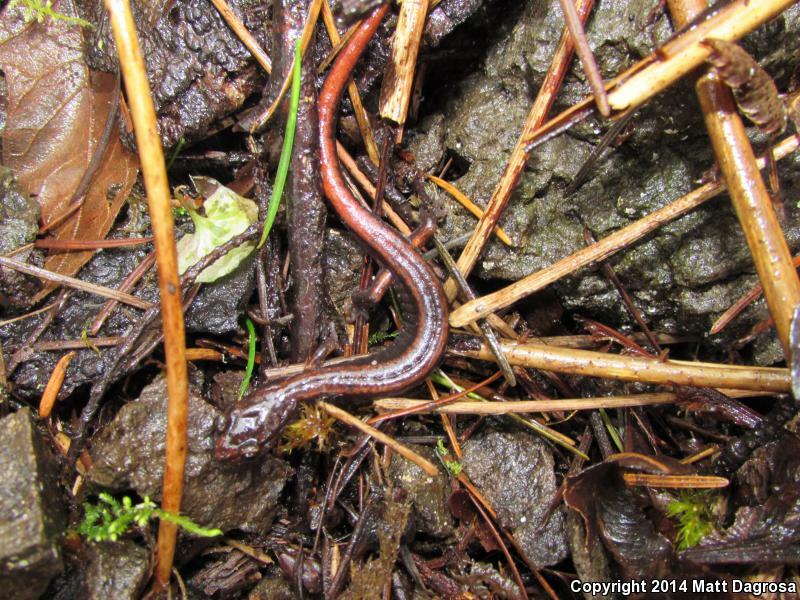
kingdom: Animalia
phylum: Chordata
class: Amphibia
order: Caudata
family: Plethodontidae
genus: Plethodon
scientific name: Plethodon vehiculum
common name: Western red-backed salamander
